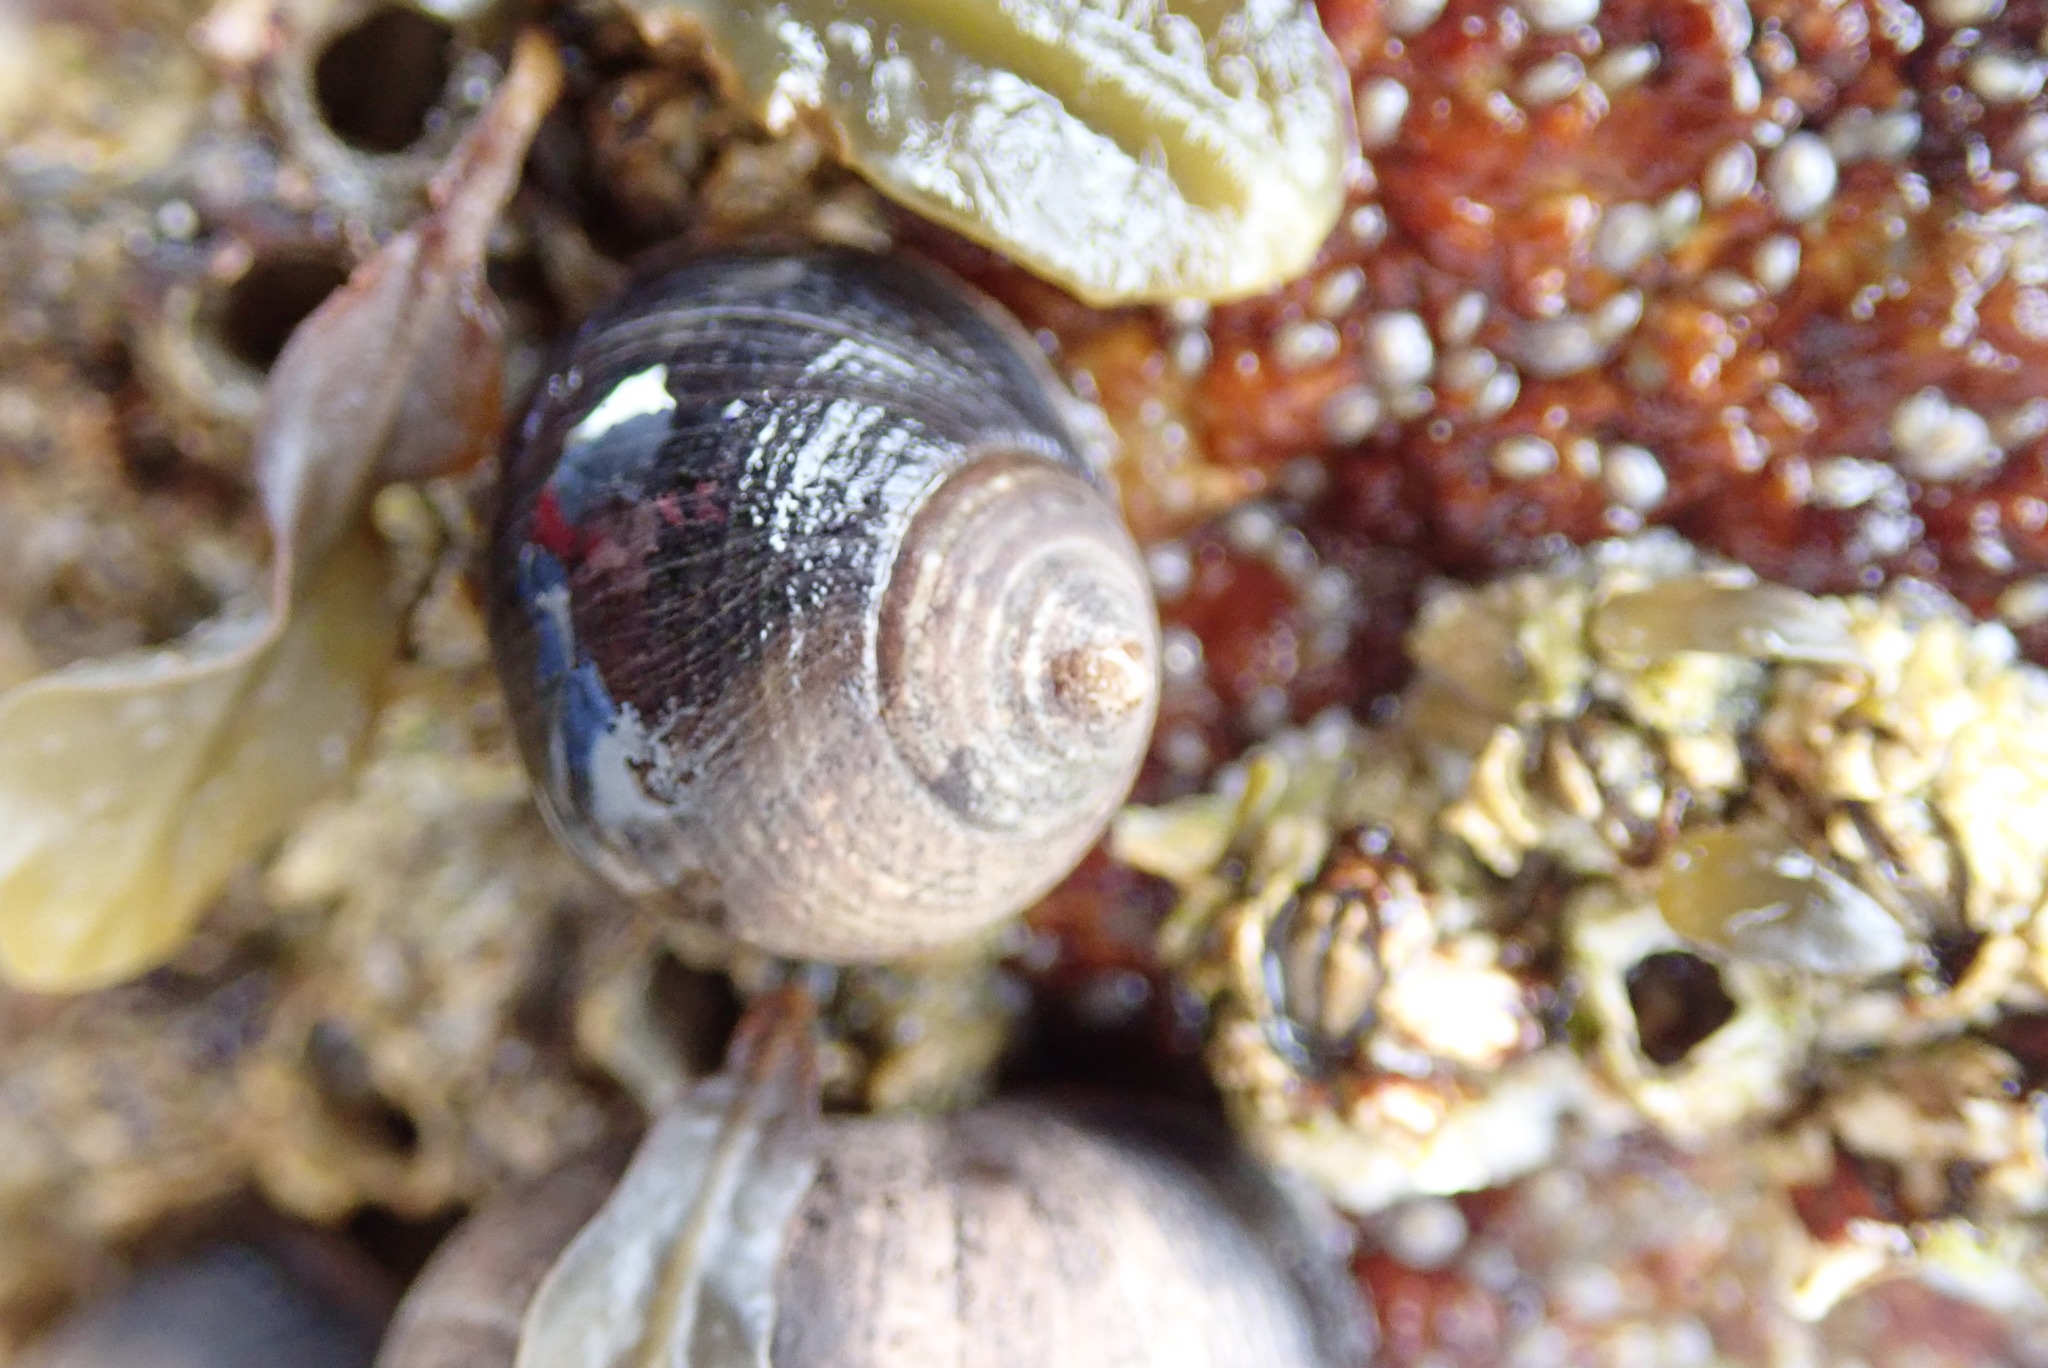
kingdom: Animalia
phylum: Mollusca
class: Gastropoda
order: Littorinimorpha
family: Littorinidae
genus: Littorina
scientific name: Littorina littorea
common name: Common periwinkle
